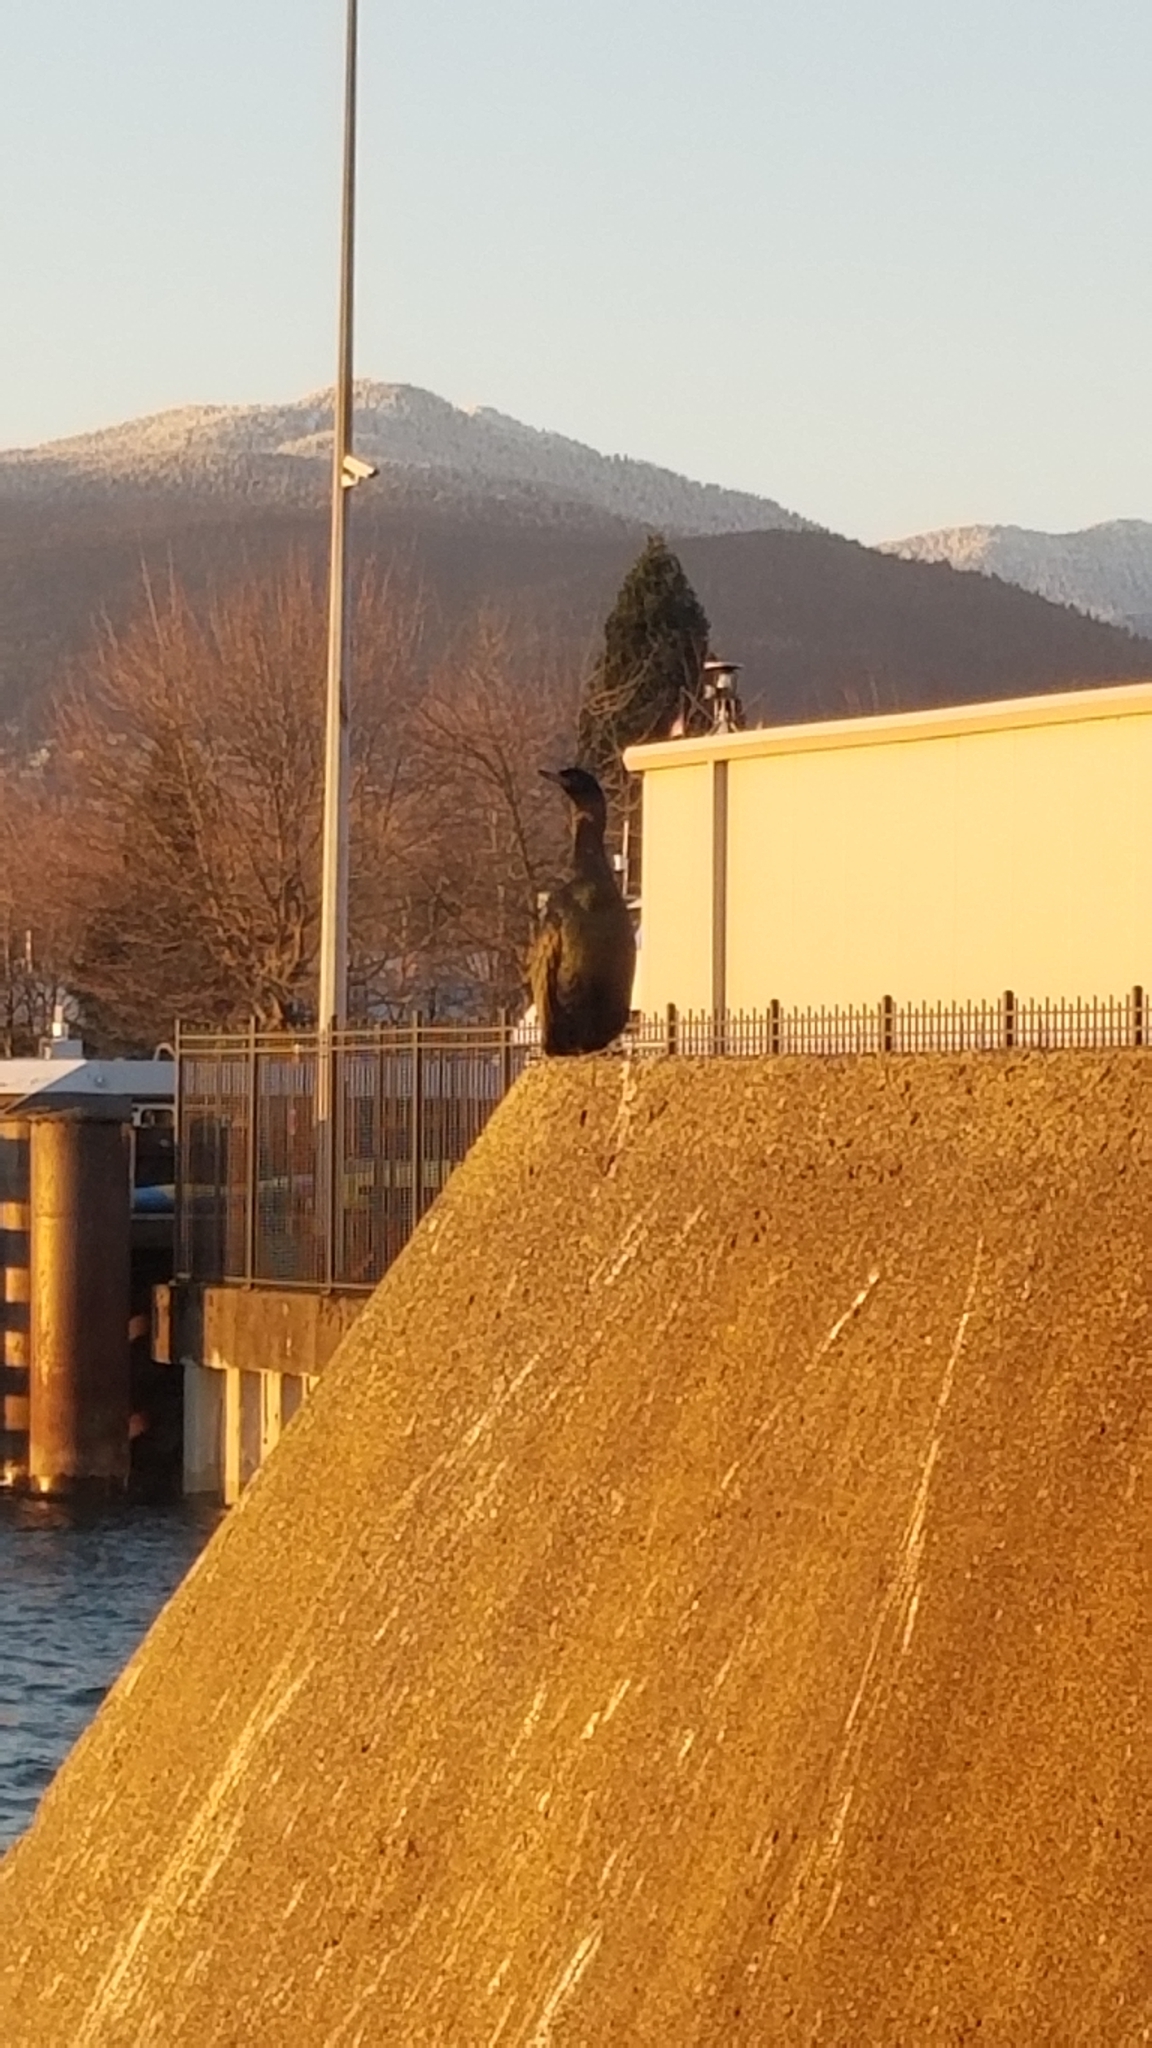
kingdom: Animalia
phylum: Chordata
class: Aves
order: Suliformes
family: Phalacrocoracidae
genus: Phalacrocorax
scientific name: Phalacrocorax pelagicus
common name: Pelagic cormorant
